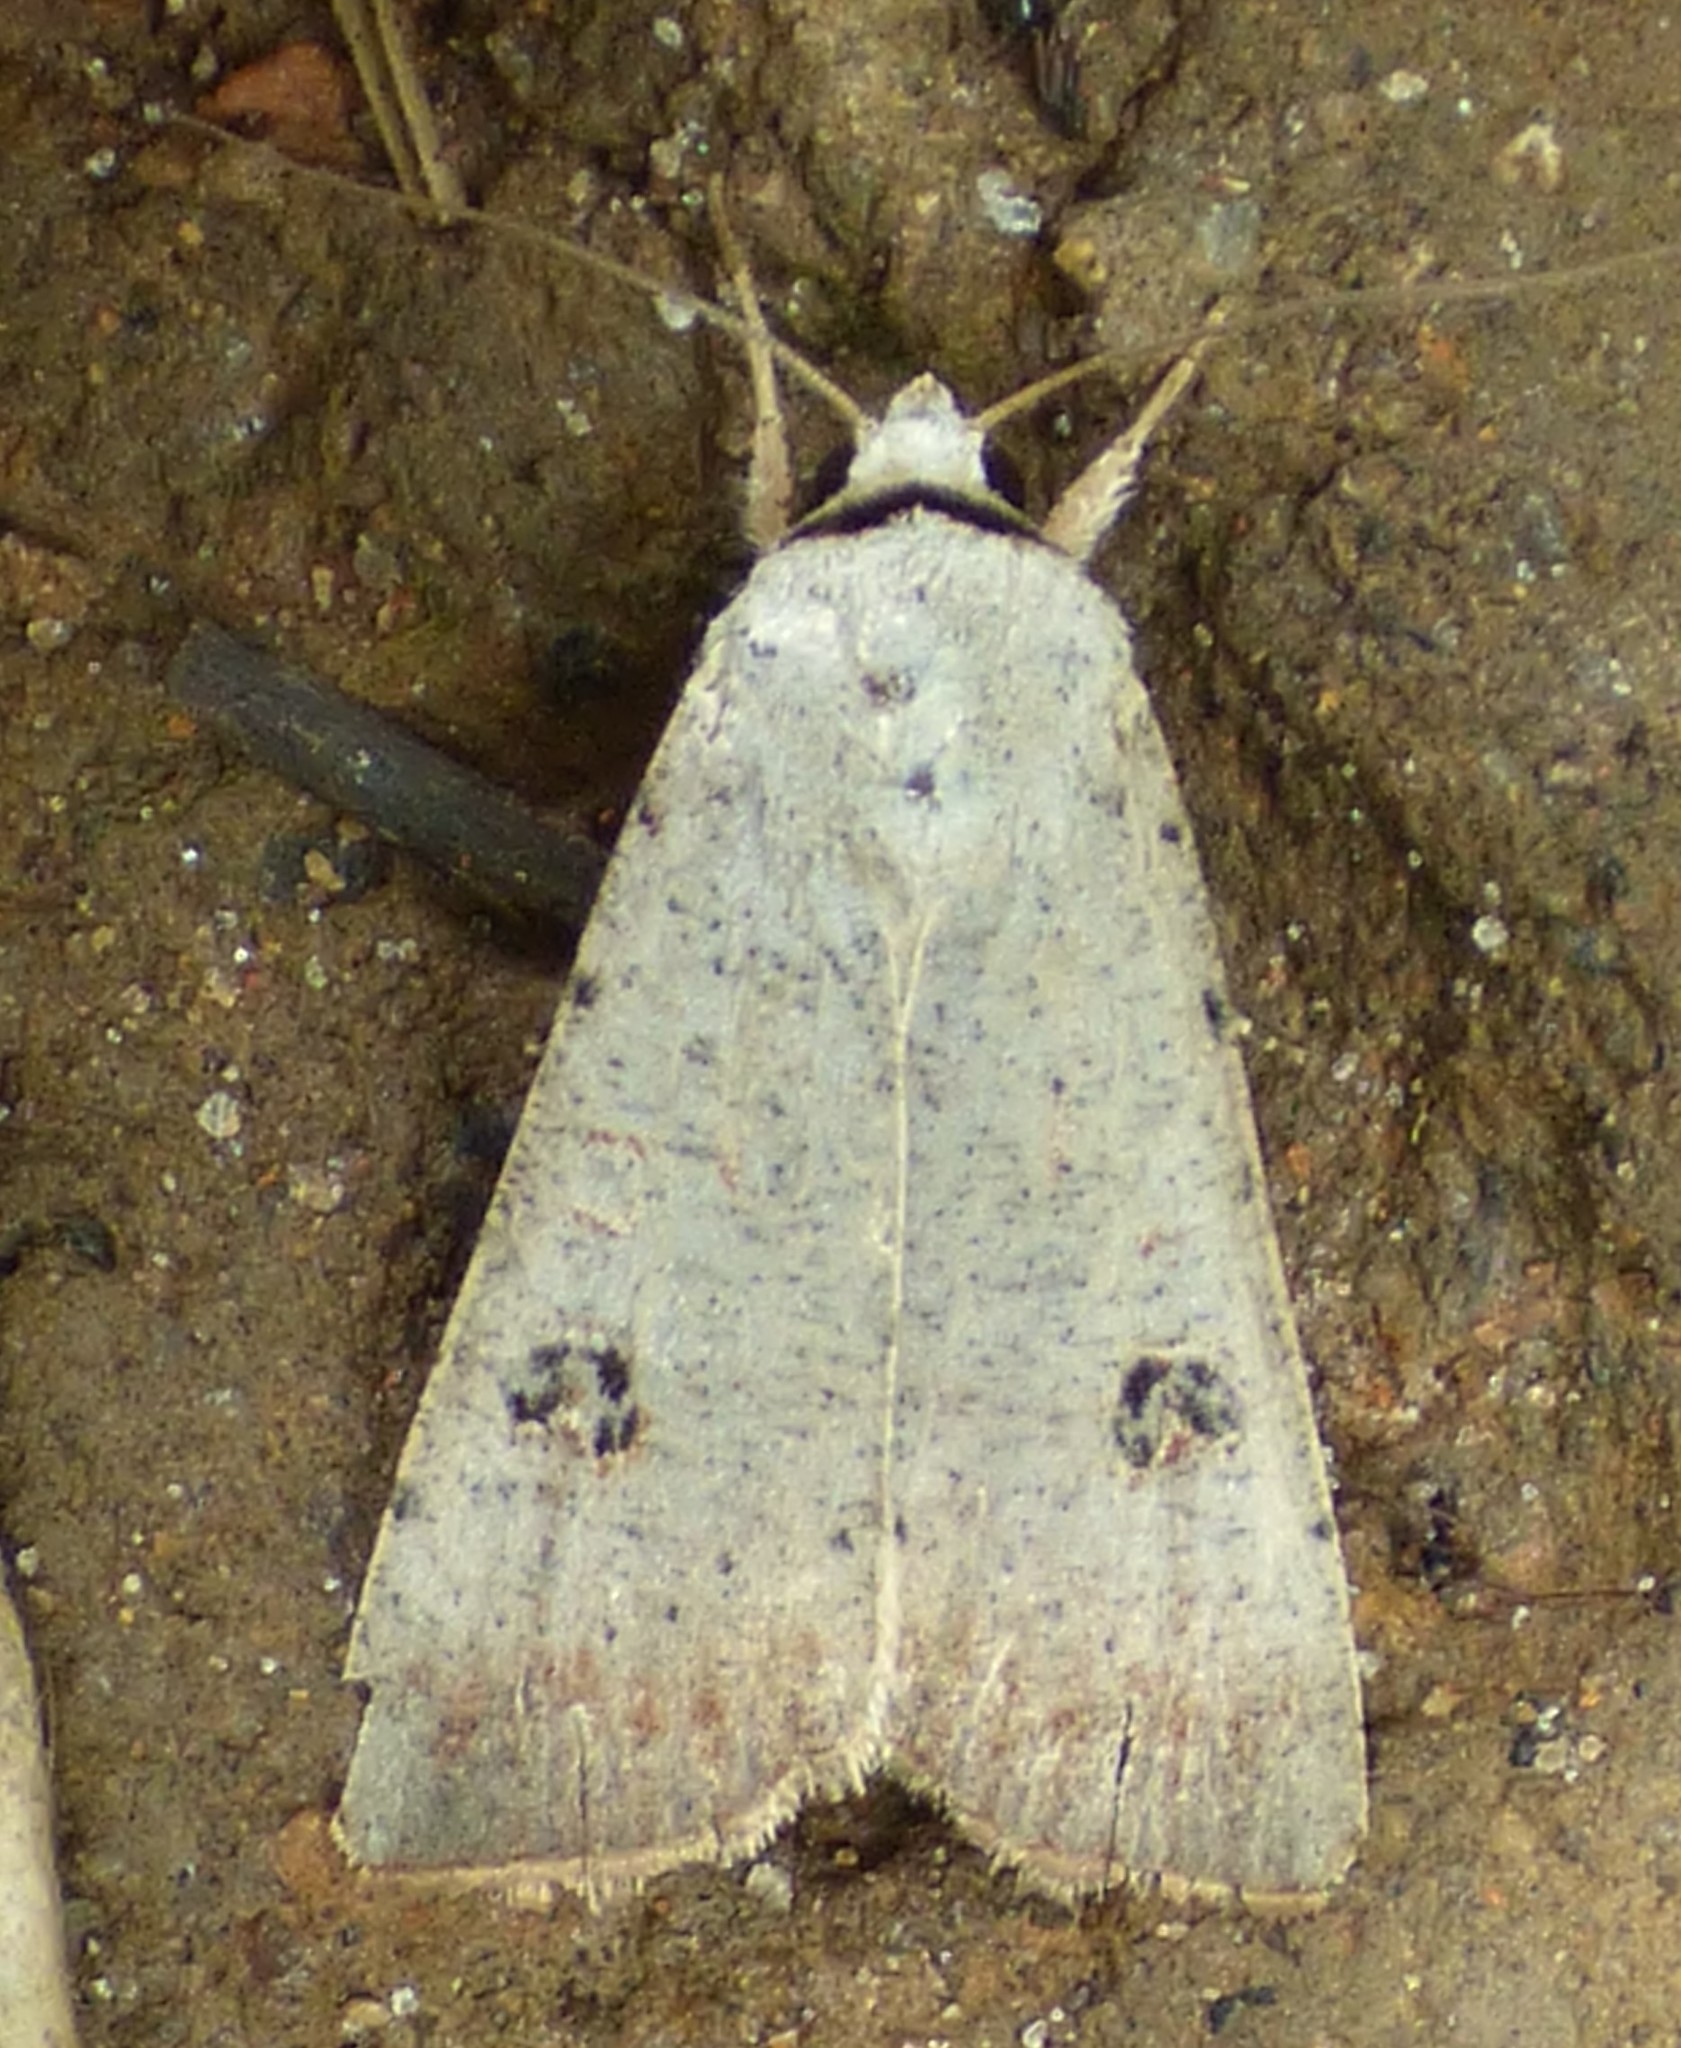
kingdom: Animalia
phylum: Arthropoda
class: Insecta
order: Lepidoptera
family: Noctuidae
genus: Anicla
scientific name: Anicla infecta
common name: Green cutworm
